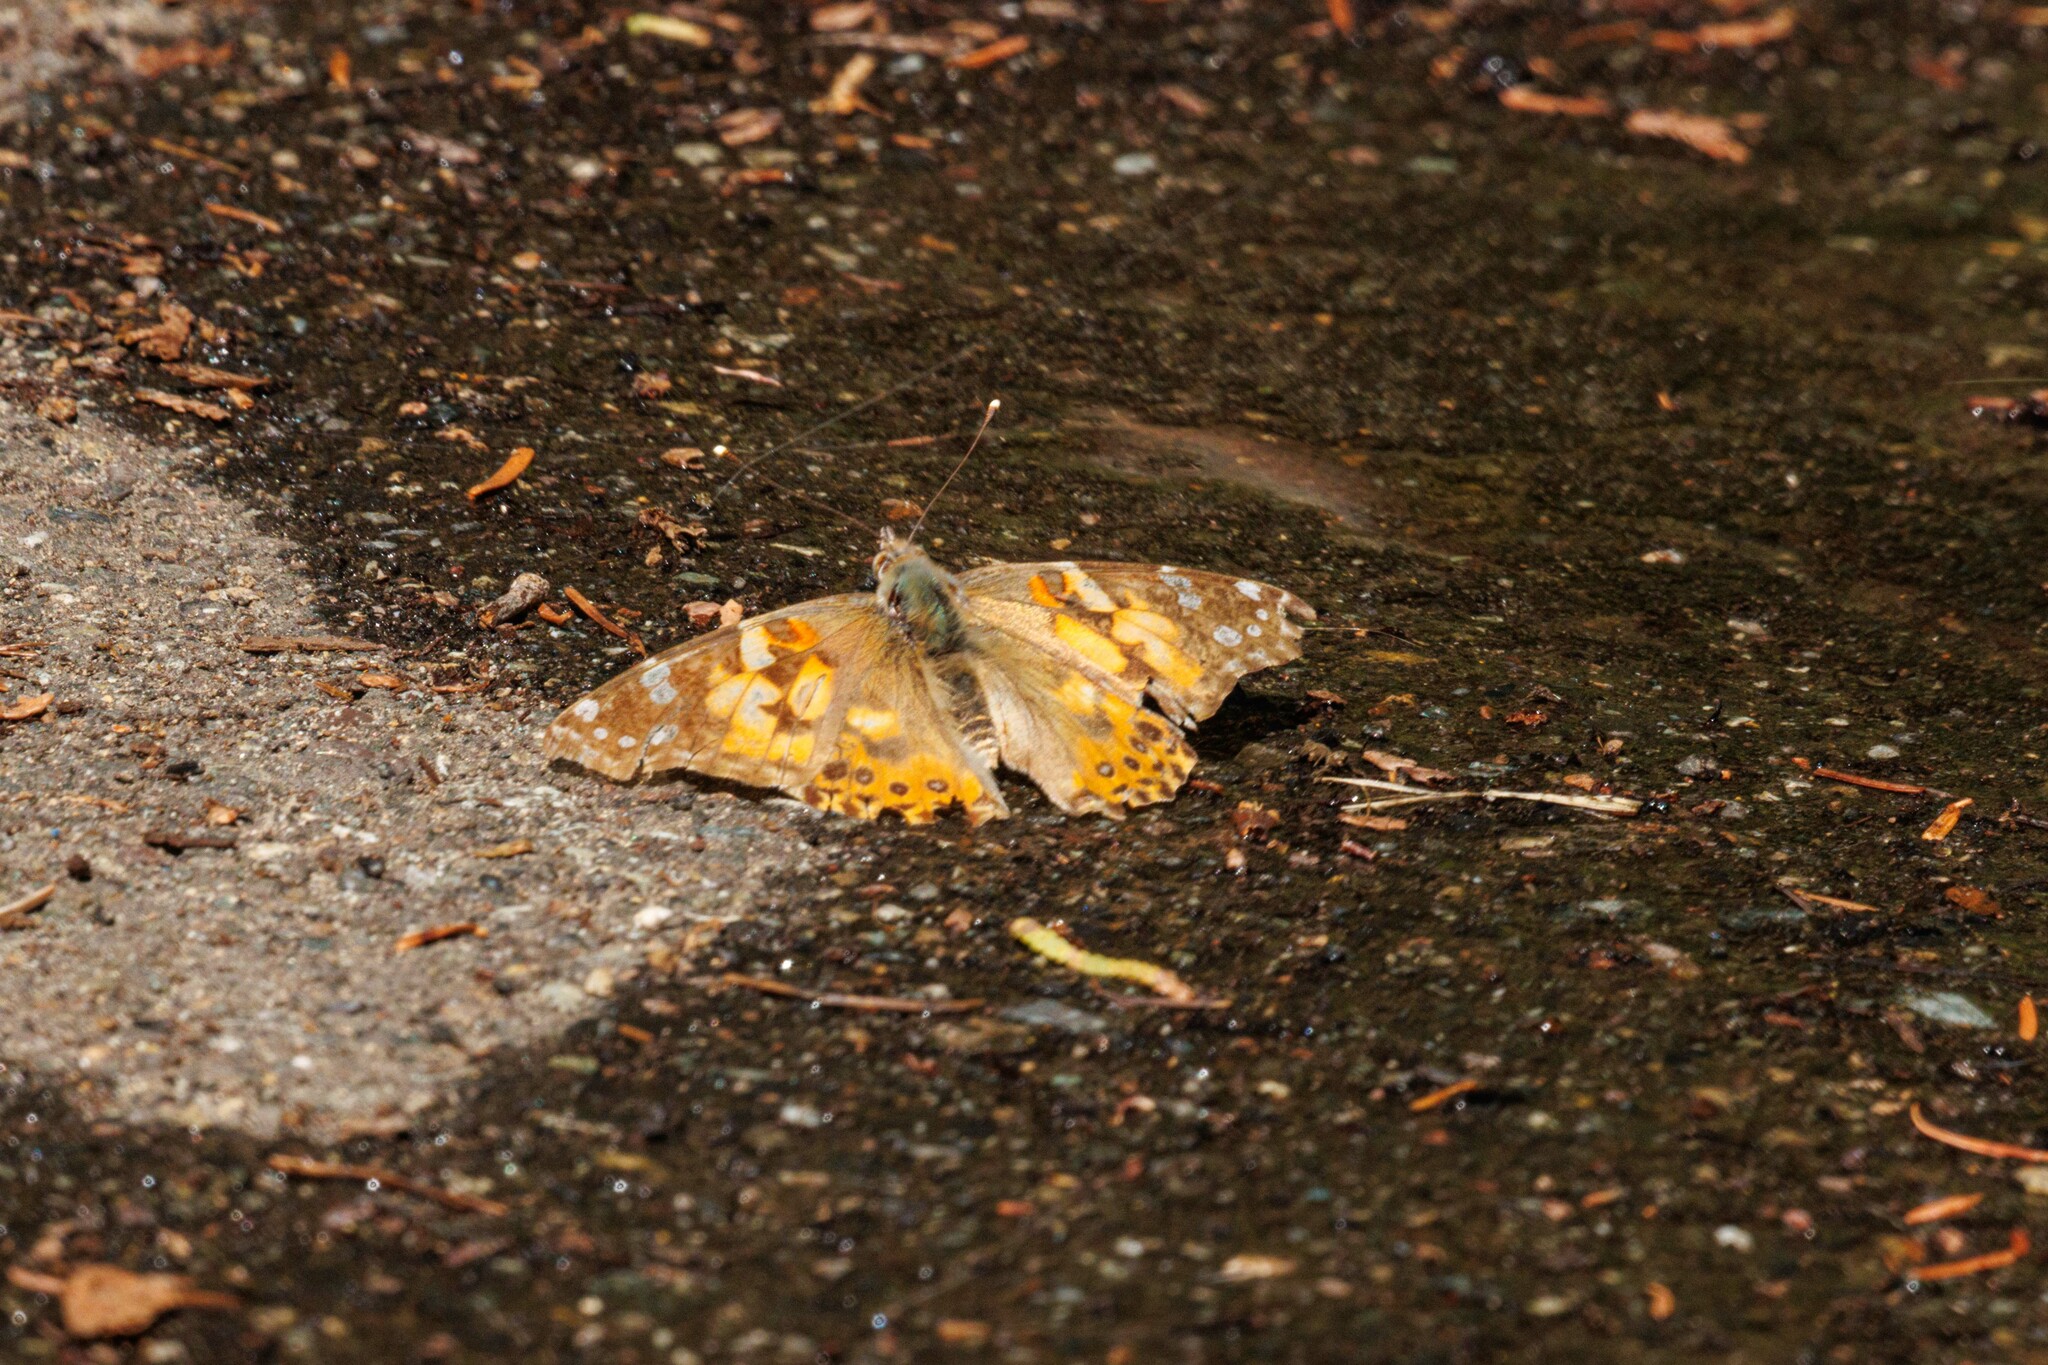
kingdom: Animalia
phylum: Arthropoda
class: Insecta
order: Lepidoptera
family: Nymphalidae
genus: Vanessa
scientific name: Vanessa cardui
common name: Painted lady
